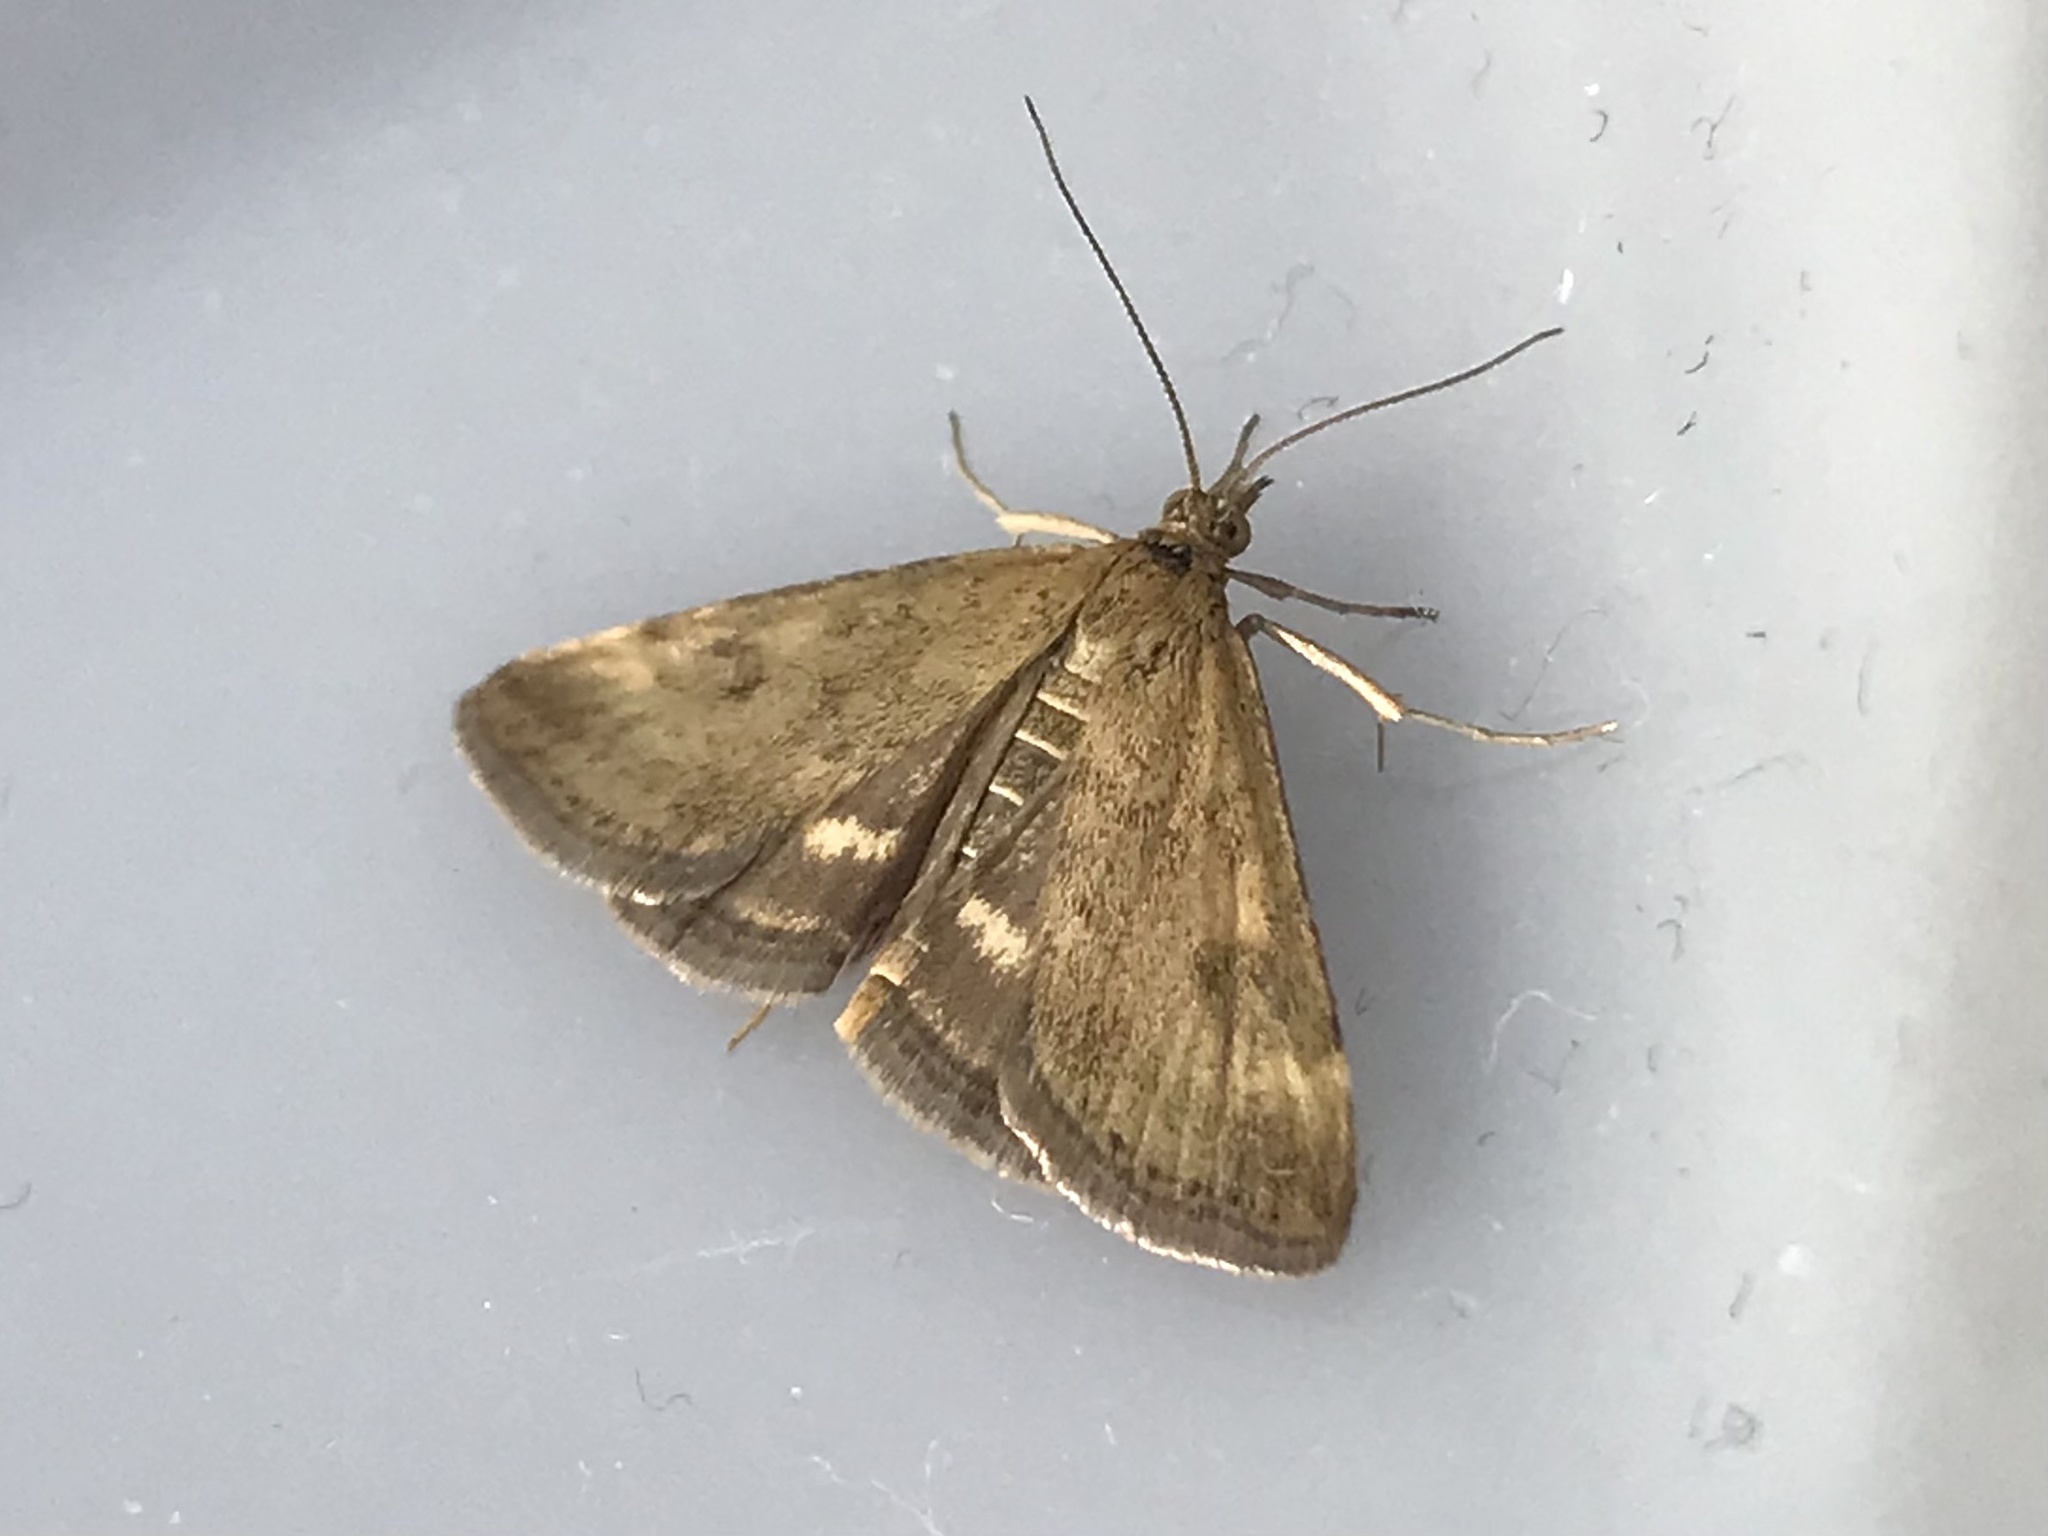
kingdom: Animalia
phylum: Arthropoda
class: Insecta
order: Lepidoptera
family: Crambidae
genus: Pyrausta
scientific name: Pyrausta despicata
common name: Straw-barred pearl
